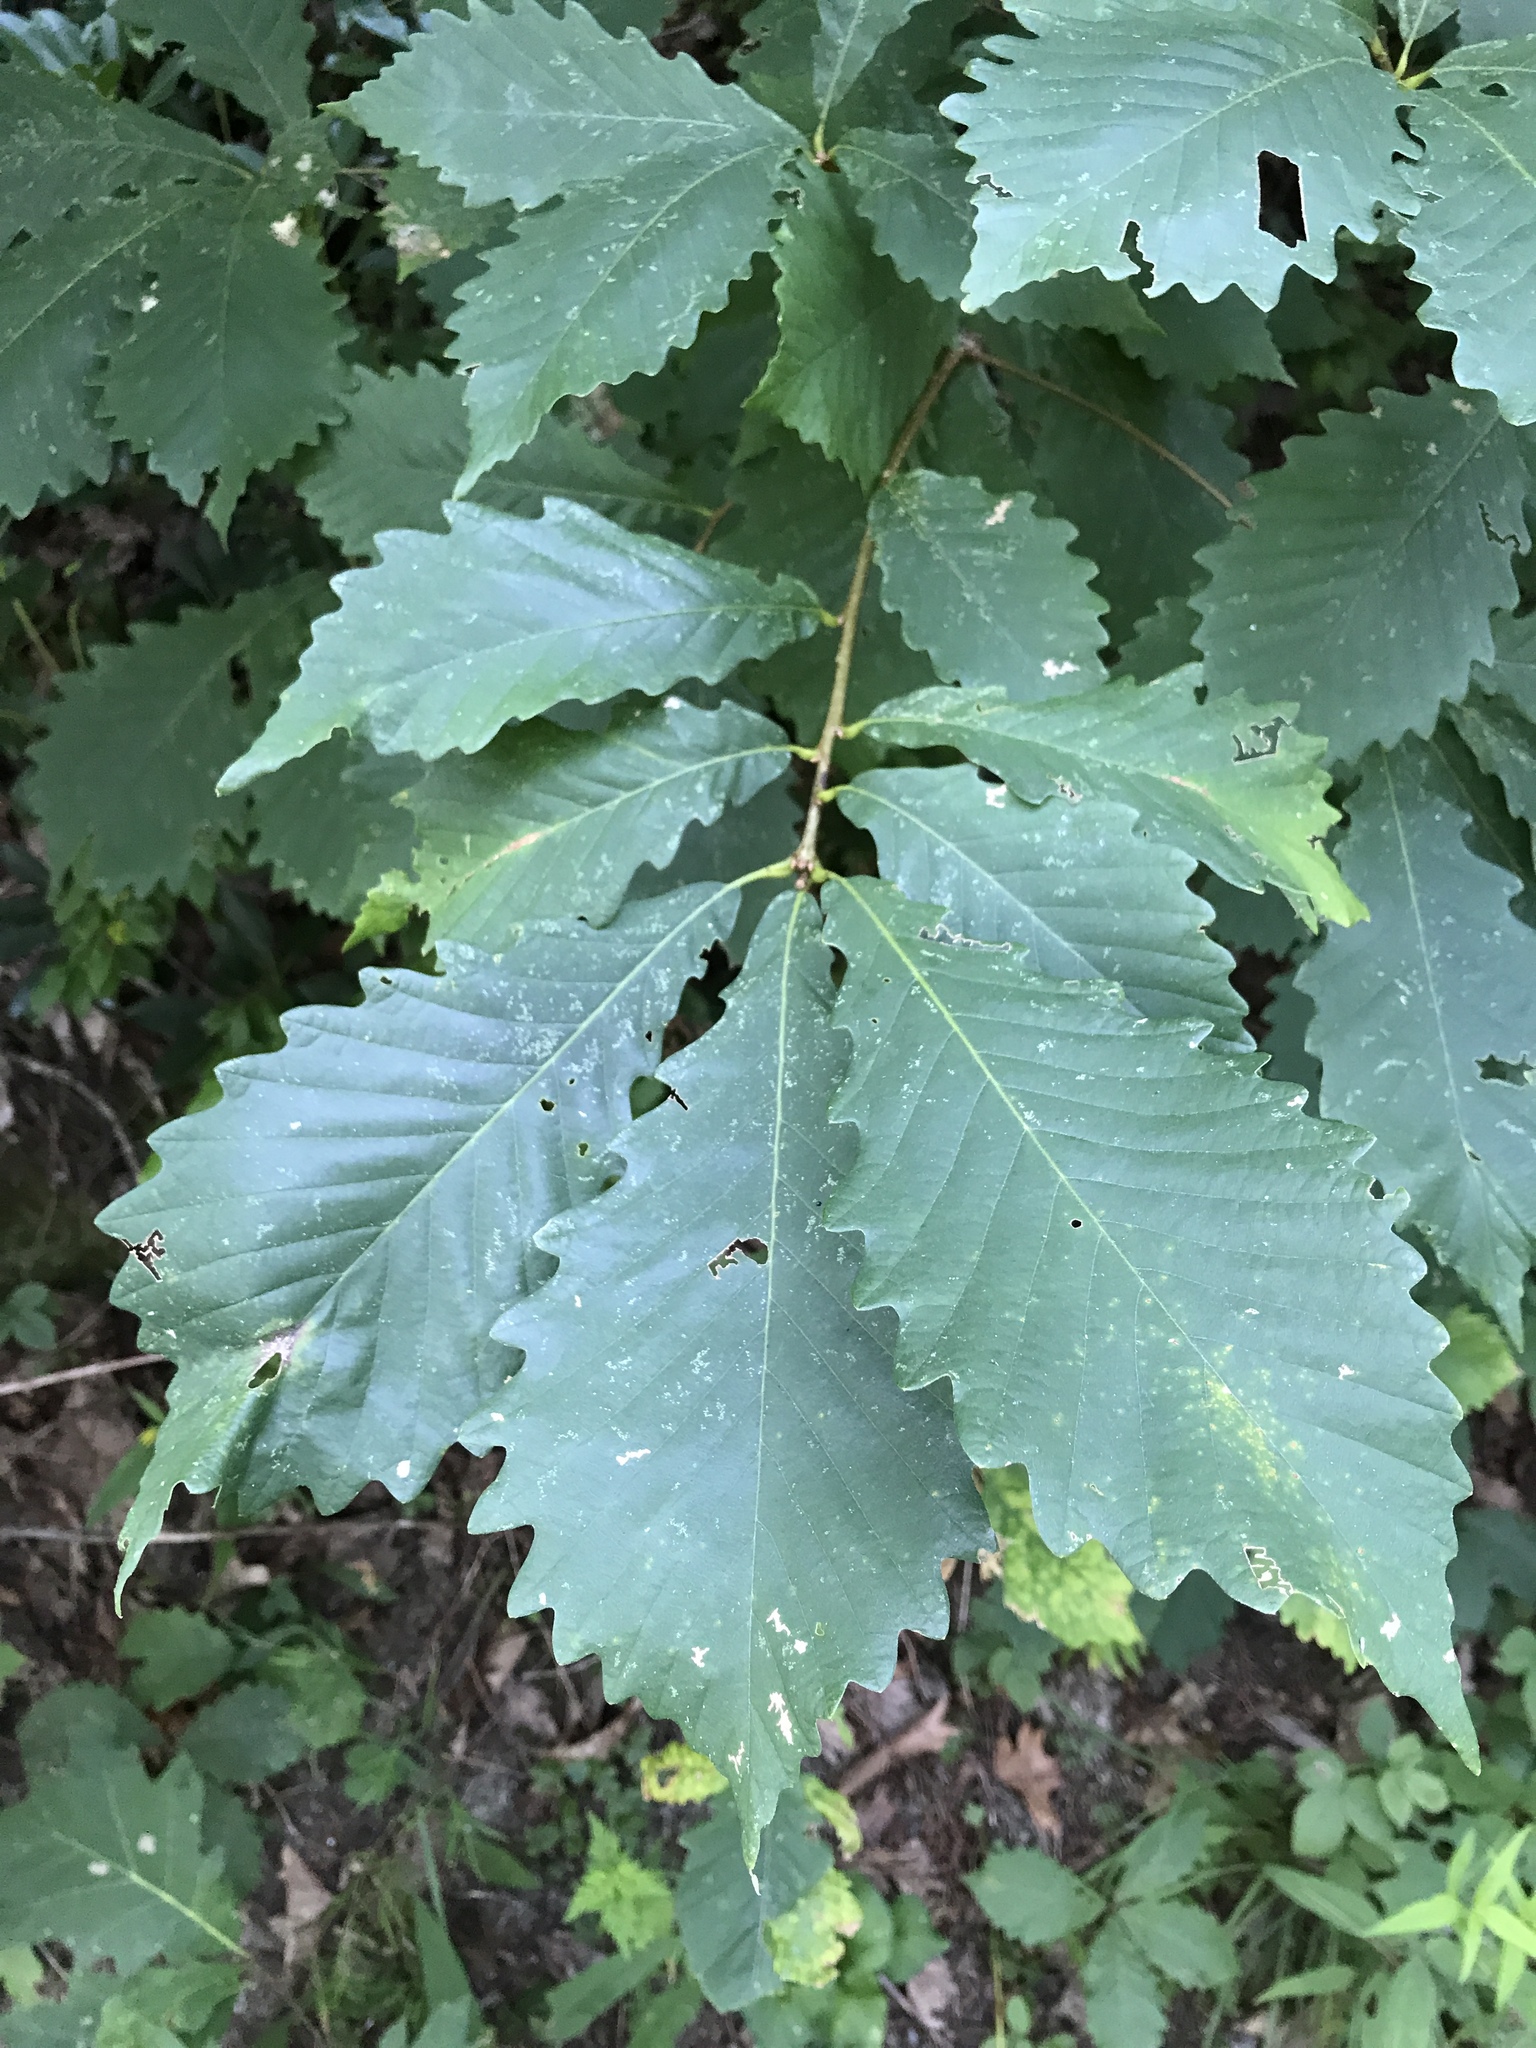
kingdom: Plantae
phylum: Tracheophyta
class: Magnoliopsida
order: Fagales
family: Fagaceae
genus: Quercus
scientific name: Quercus montana
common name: Chestnut oak
